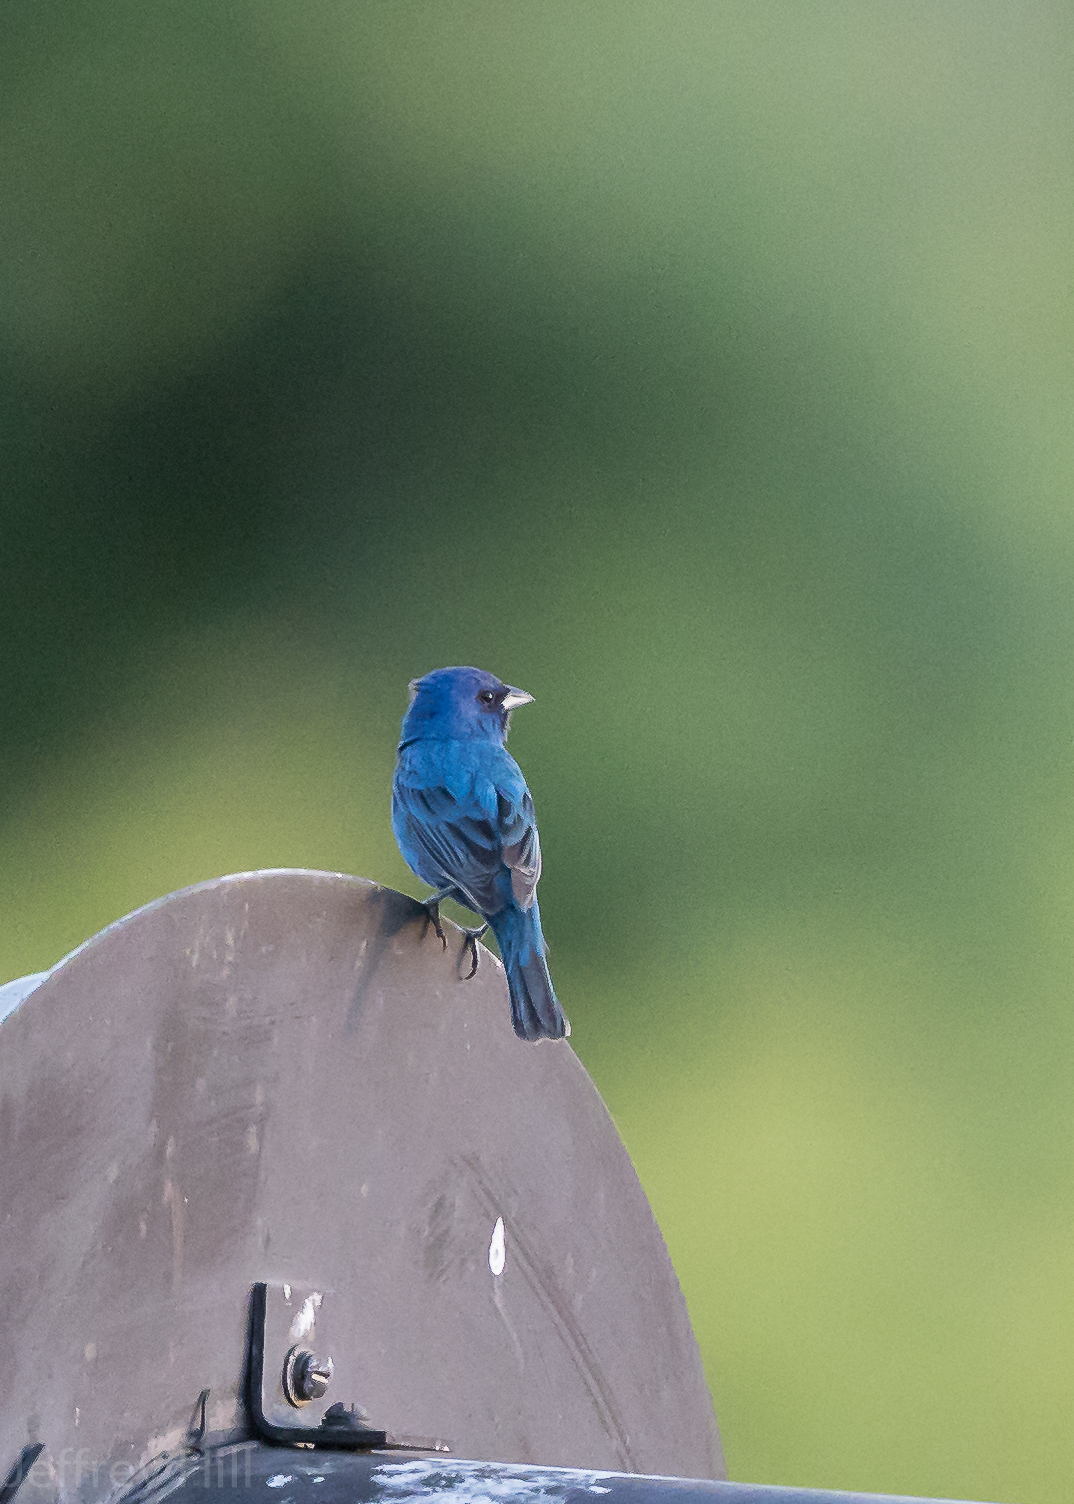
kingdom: Animalia
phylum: Chordata
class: Aves
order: Passeriformes
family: Cardinalidae
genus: Passerina
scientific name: Passerina cyanea
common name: Indigo bunting
